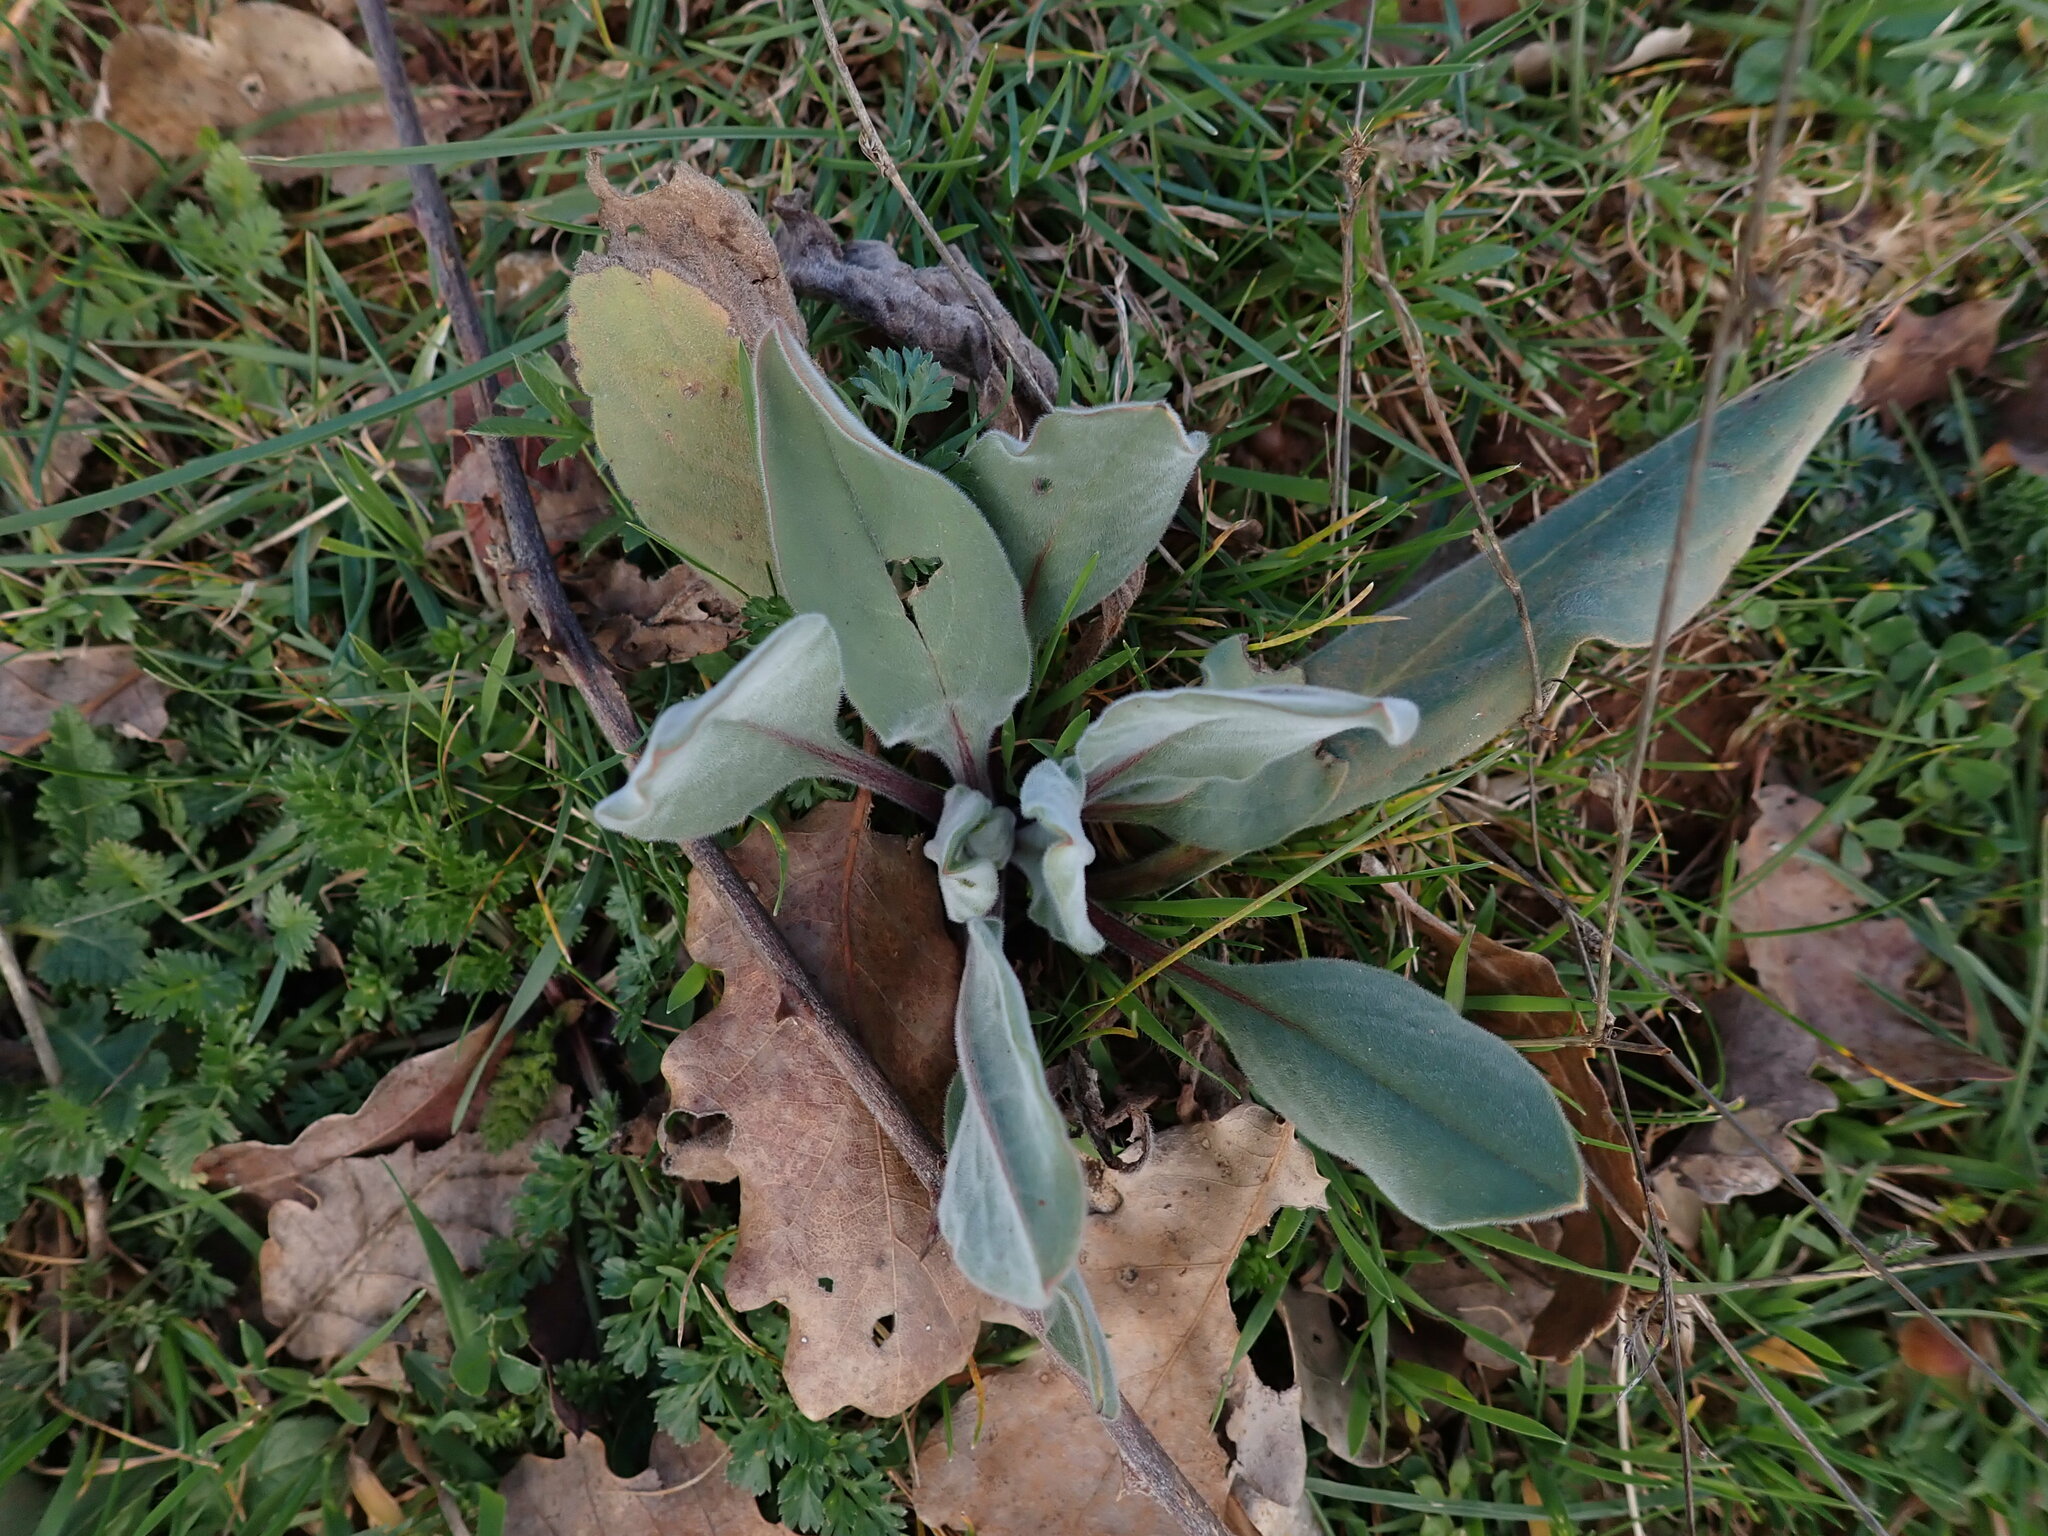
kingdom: Plantae
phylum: Tracheophyta
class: Magnoliopsida
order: Boraginales
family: Boraginaceae
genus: Cynoglossum
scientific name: Cynoglossum creticum
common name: Blue hound's tongue
